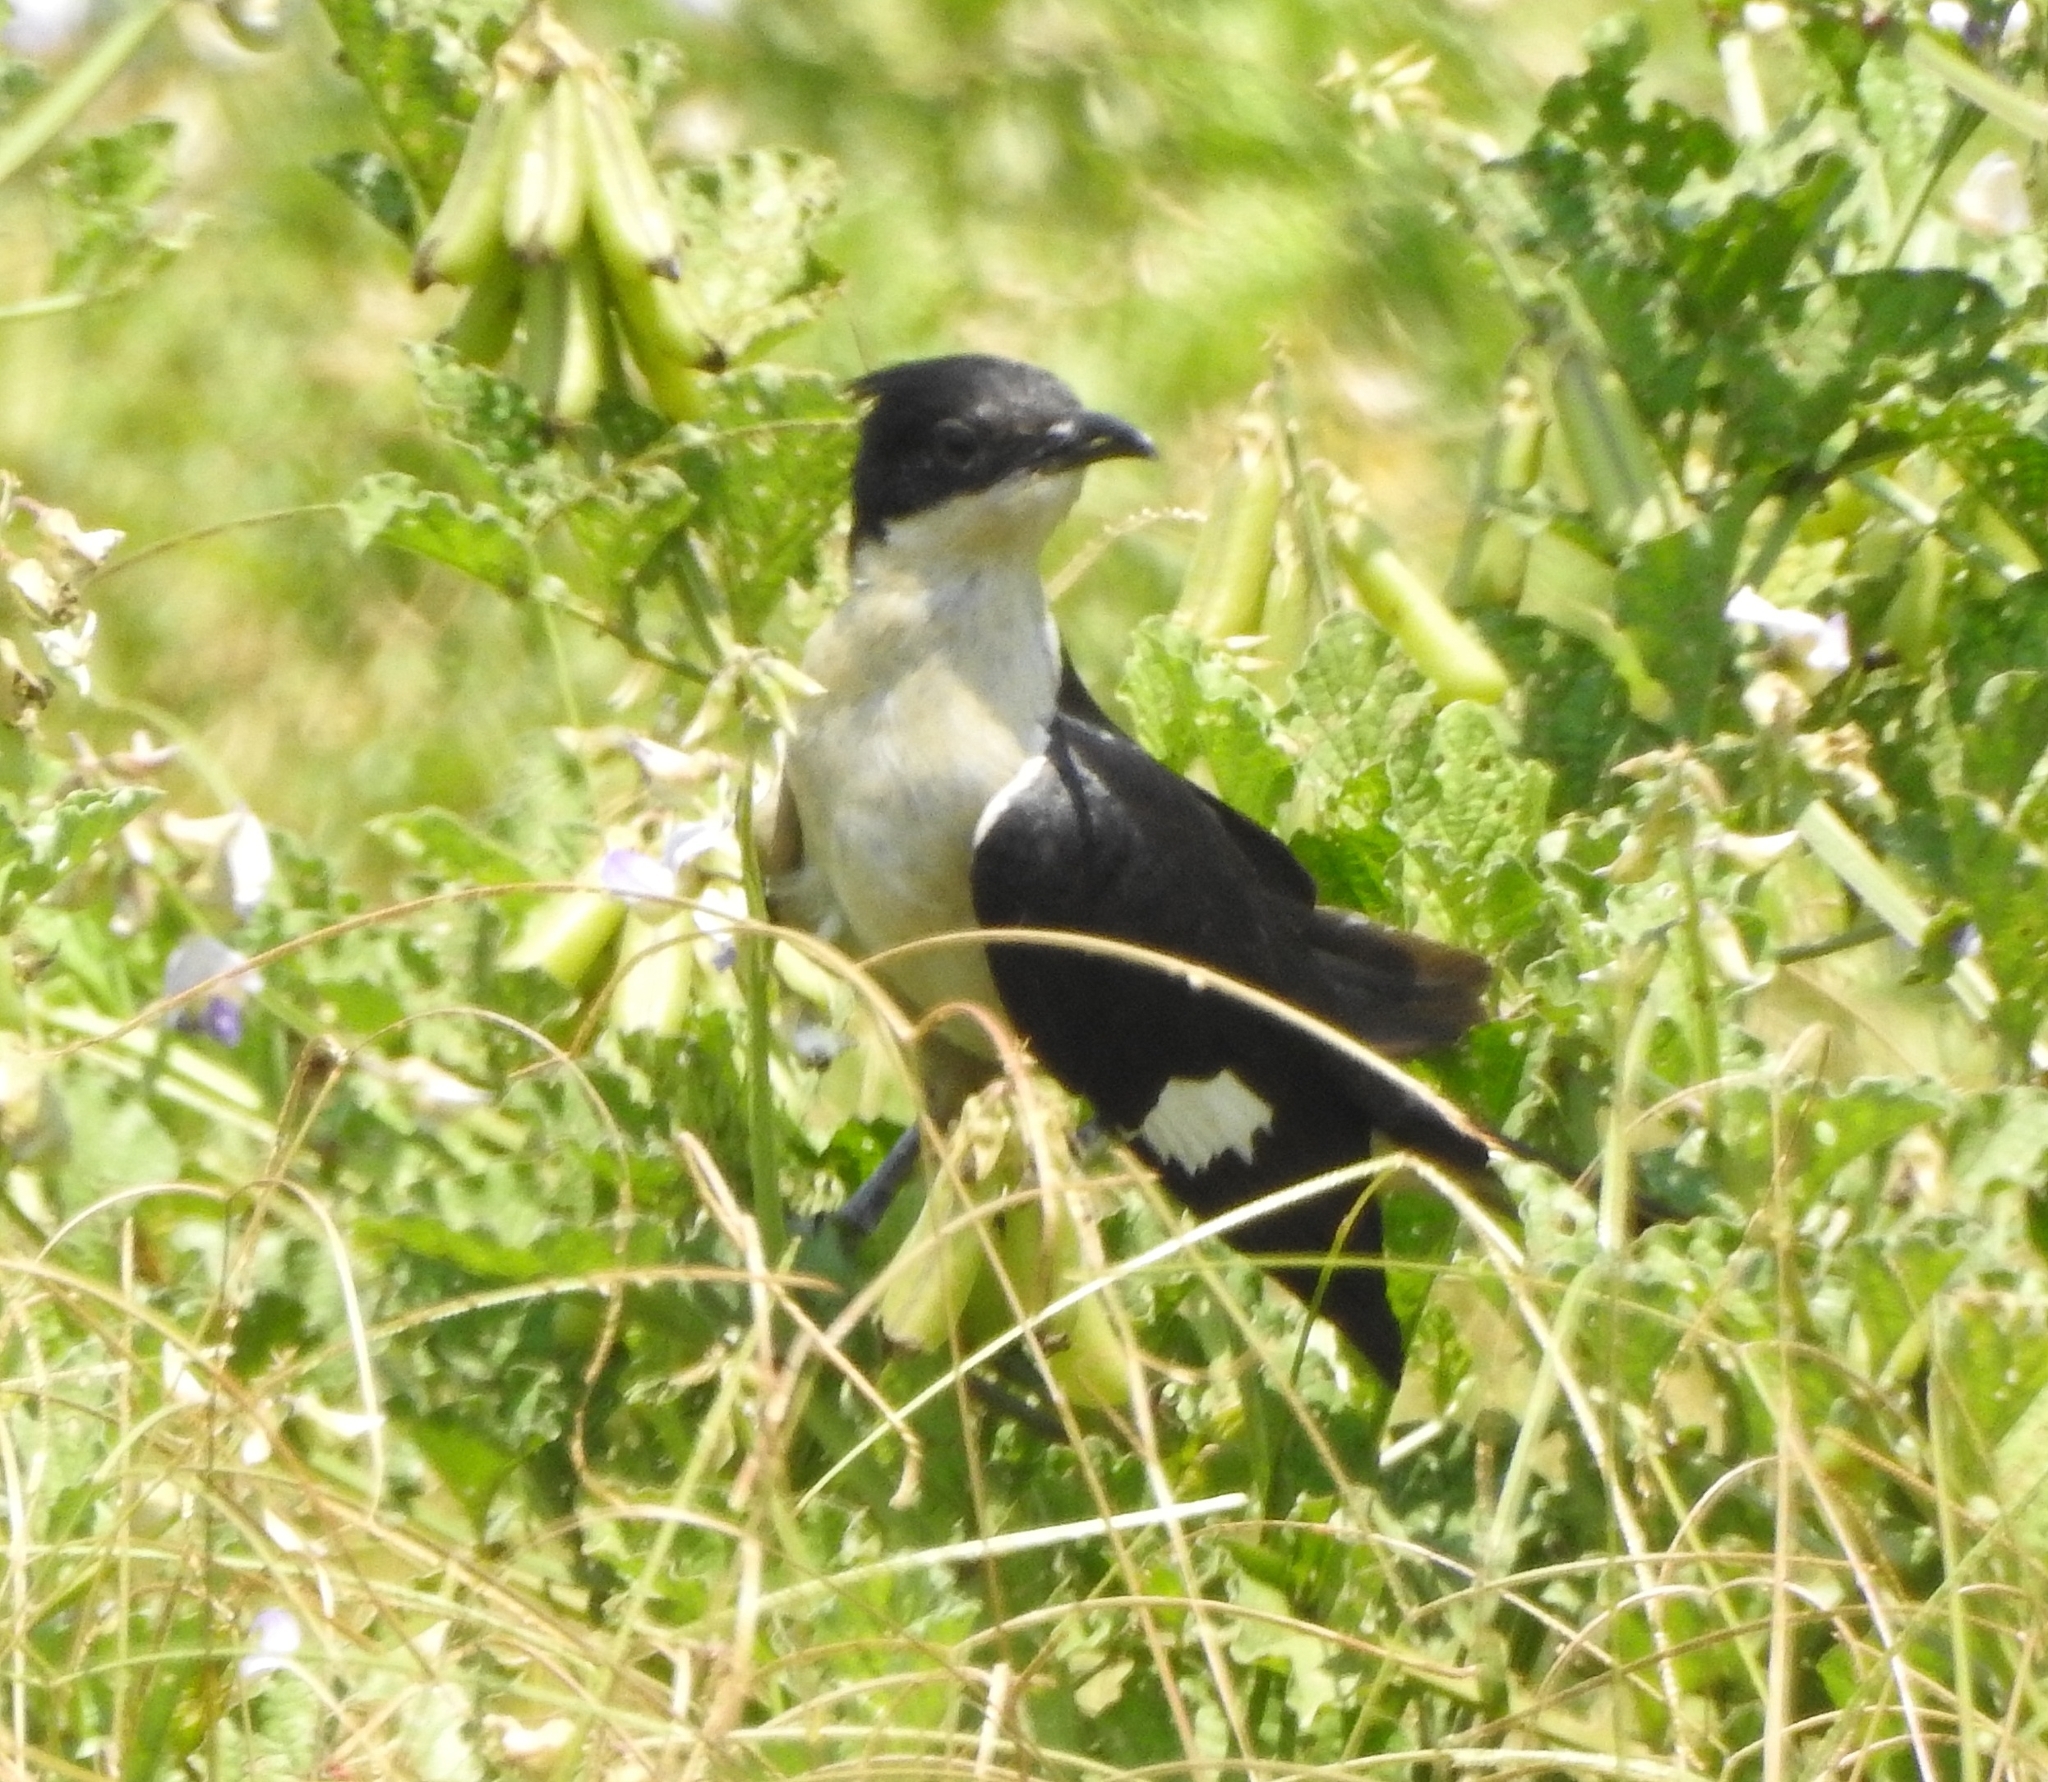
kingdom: Animalia
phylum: Chordata
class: Aves
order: Cuculiformes
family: Cuculidae
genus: Clamator
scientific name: Clamator jacobinus
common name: Jacobin cuckoo
